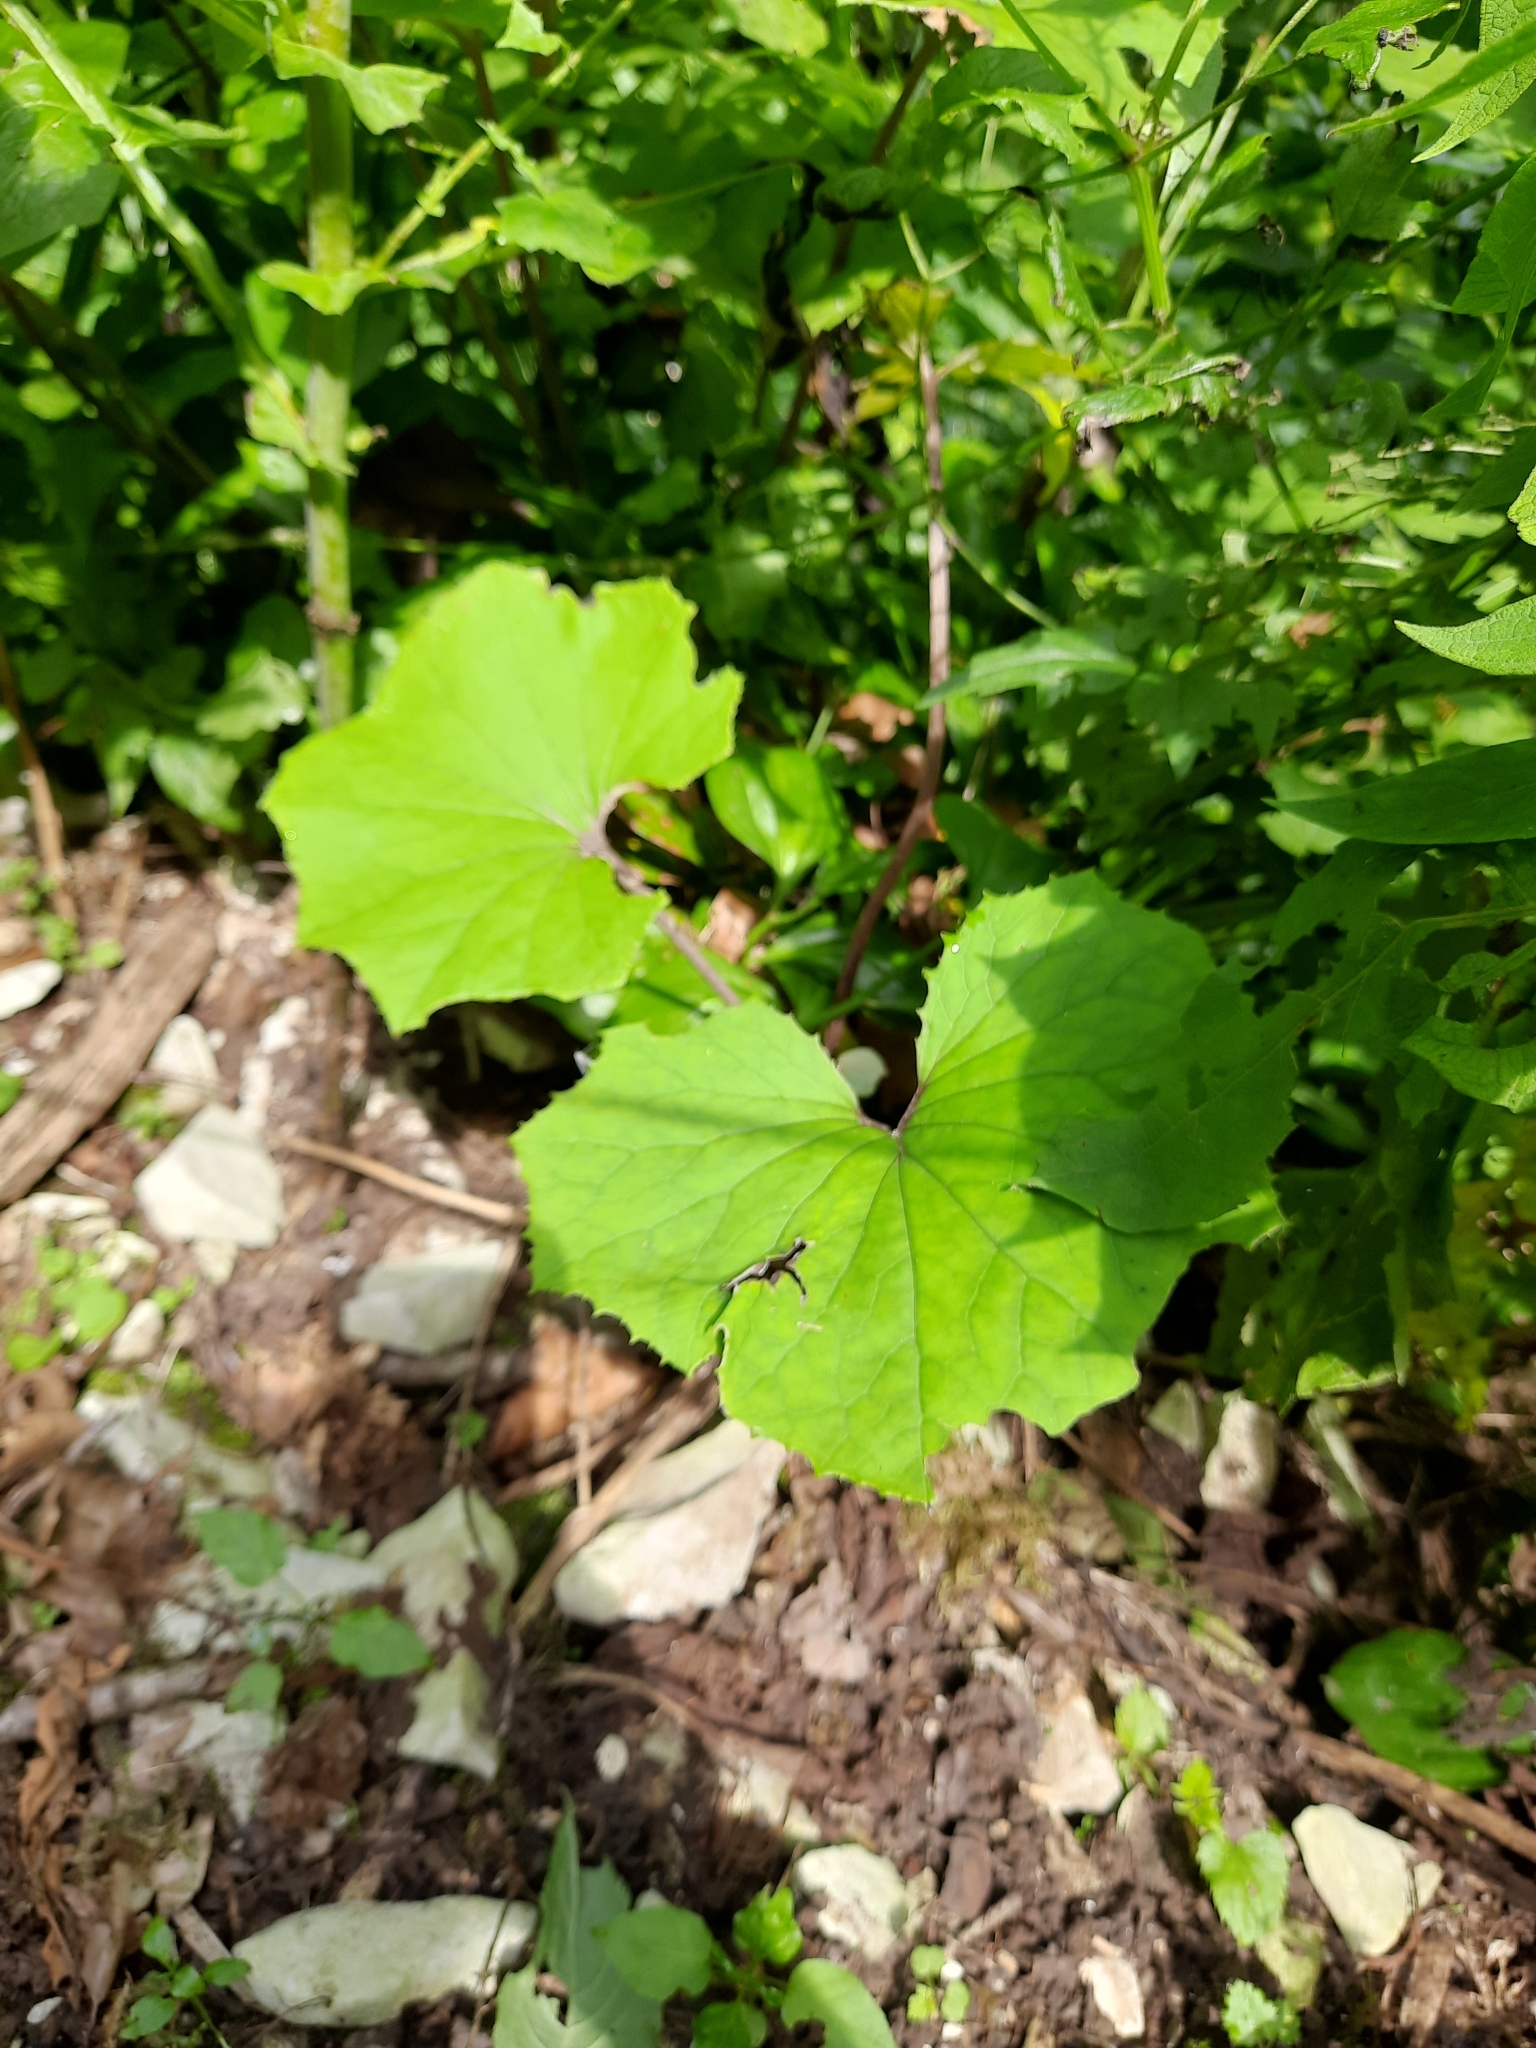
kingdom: Plantae
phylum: Tracheophyta
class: Magnoliopsida
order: Asterales
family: Asteraceae
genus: Tussilago
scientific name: Tussilago farfara
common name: Coltsfoot
